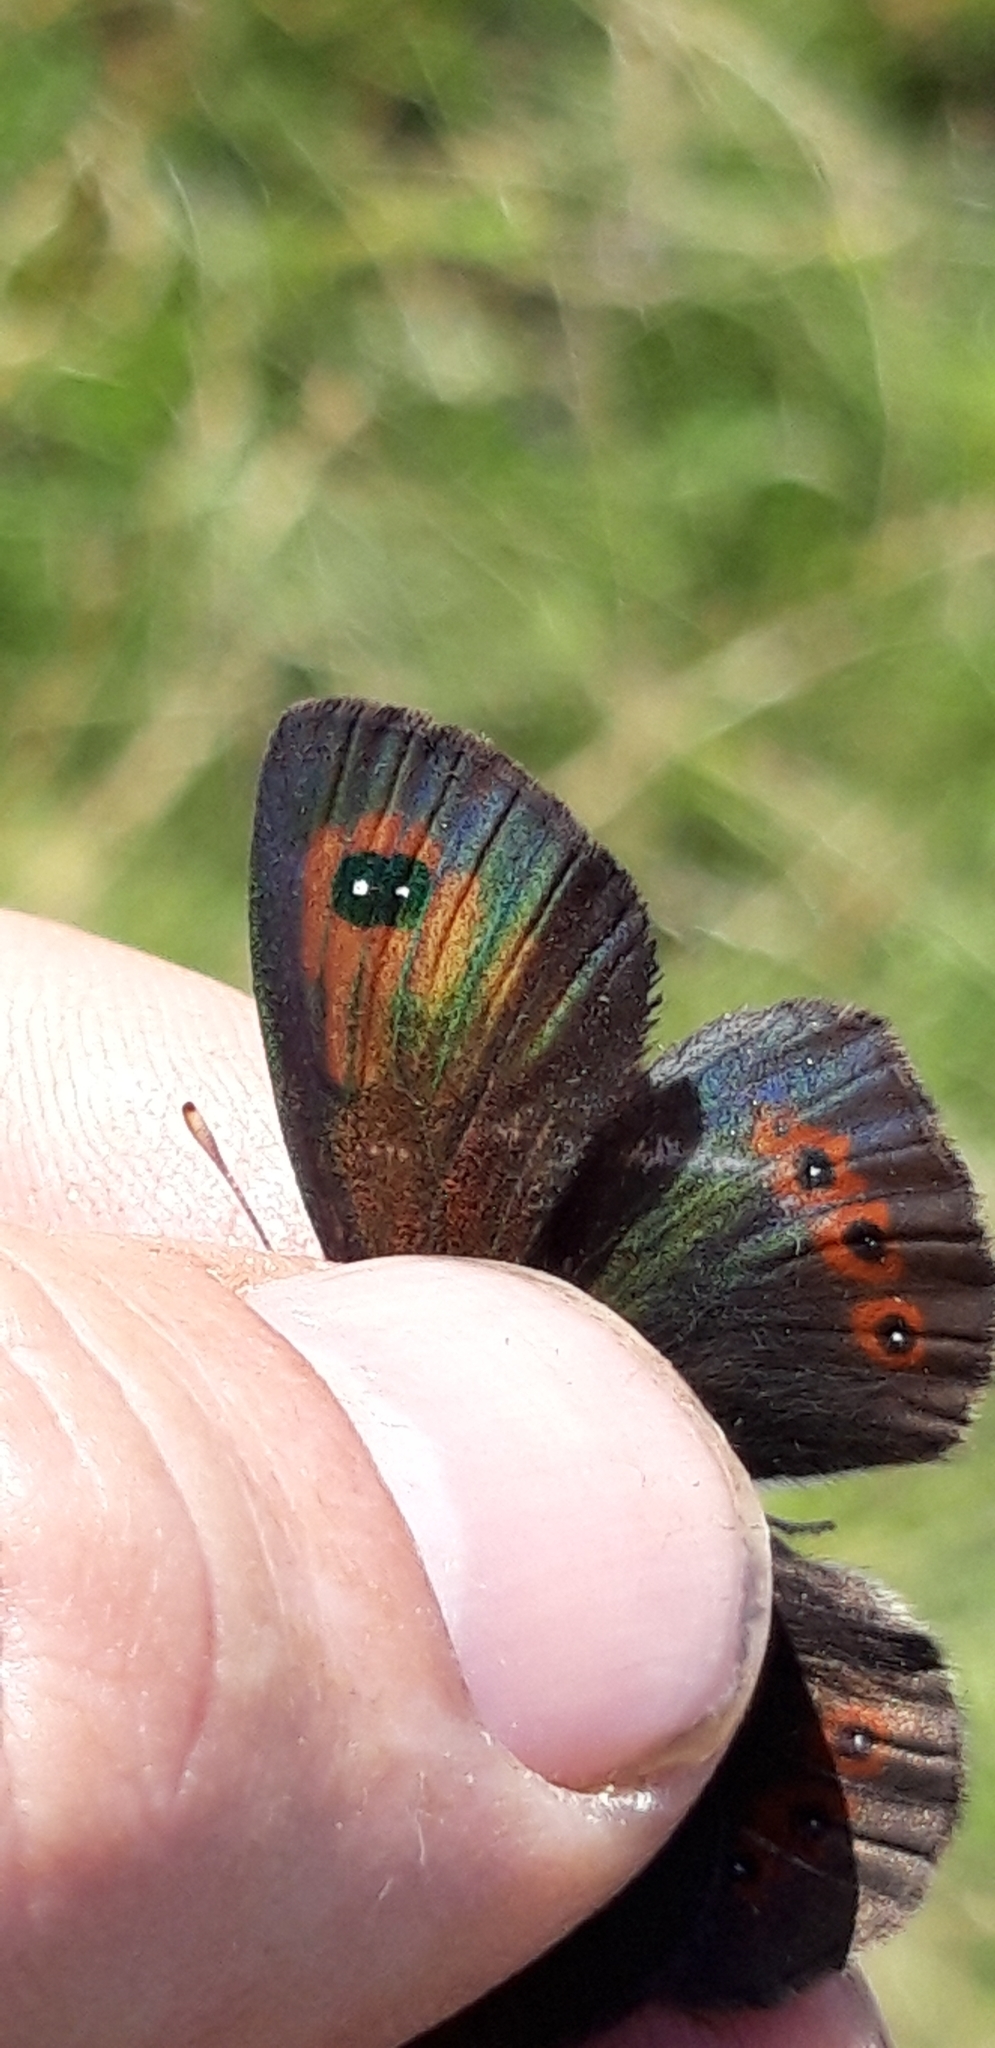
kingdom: Animalia
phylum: Arthropoda
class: Insecta
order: Lepidoptera
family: Nymphalidae
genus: Erebia
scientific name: Erebia
